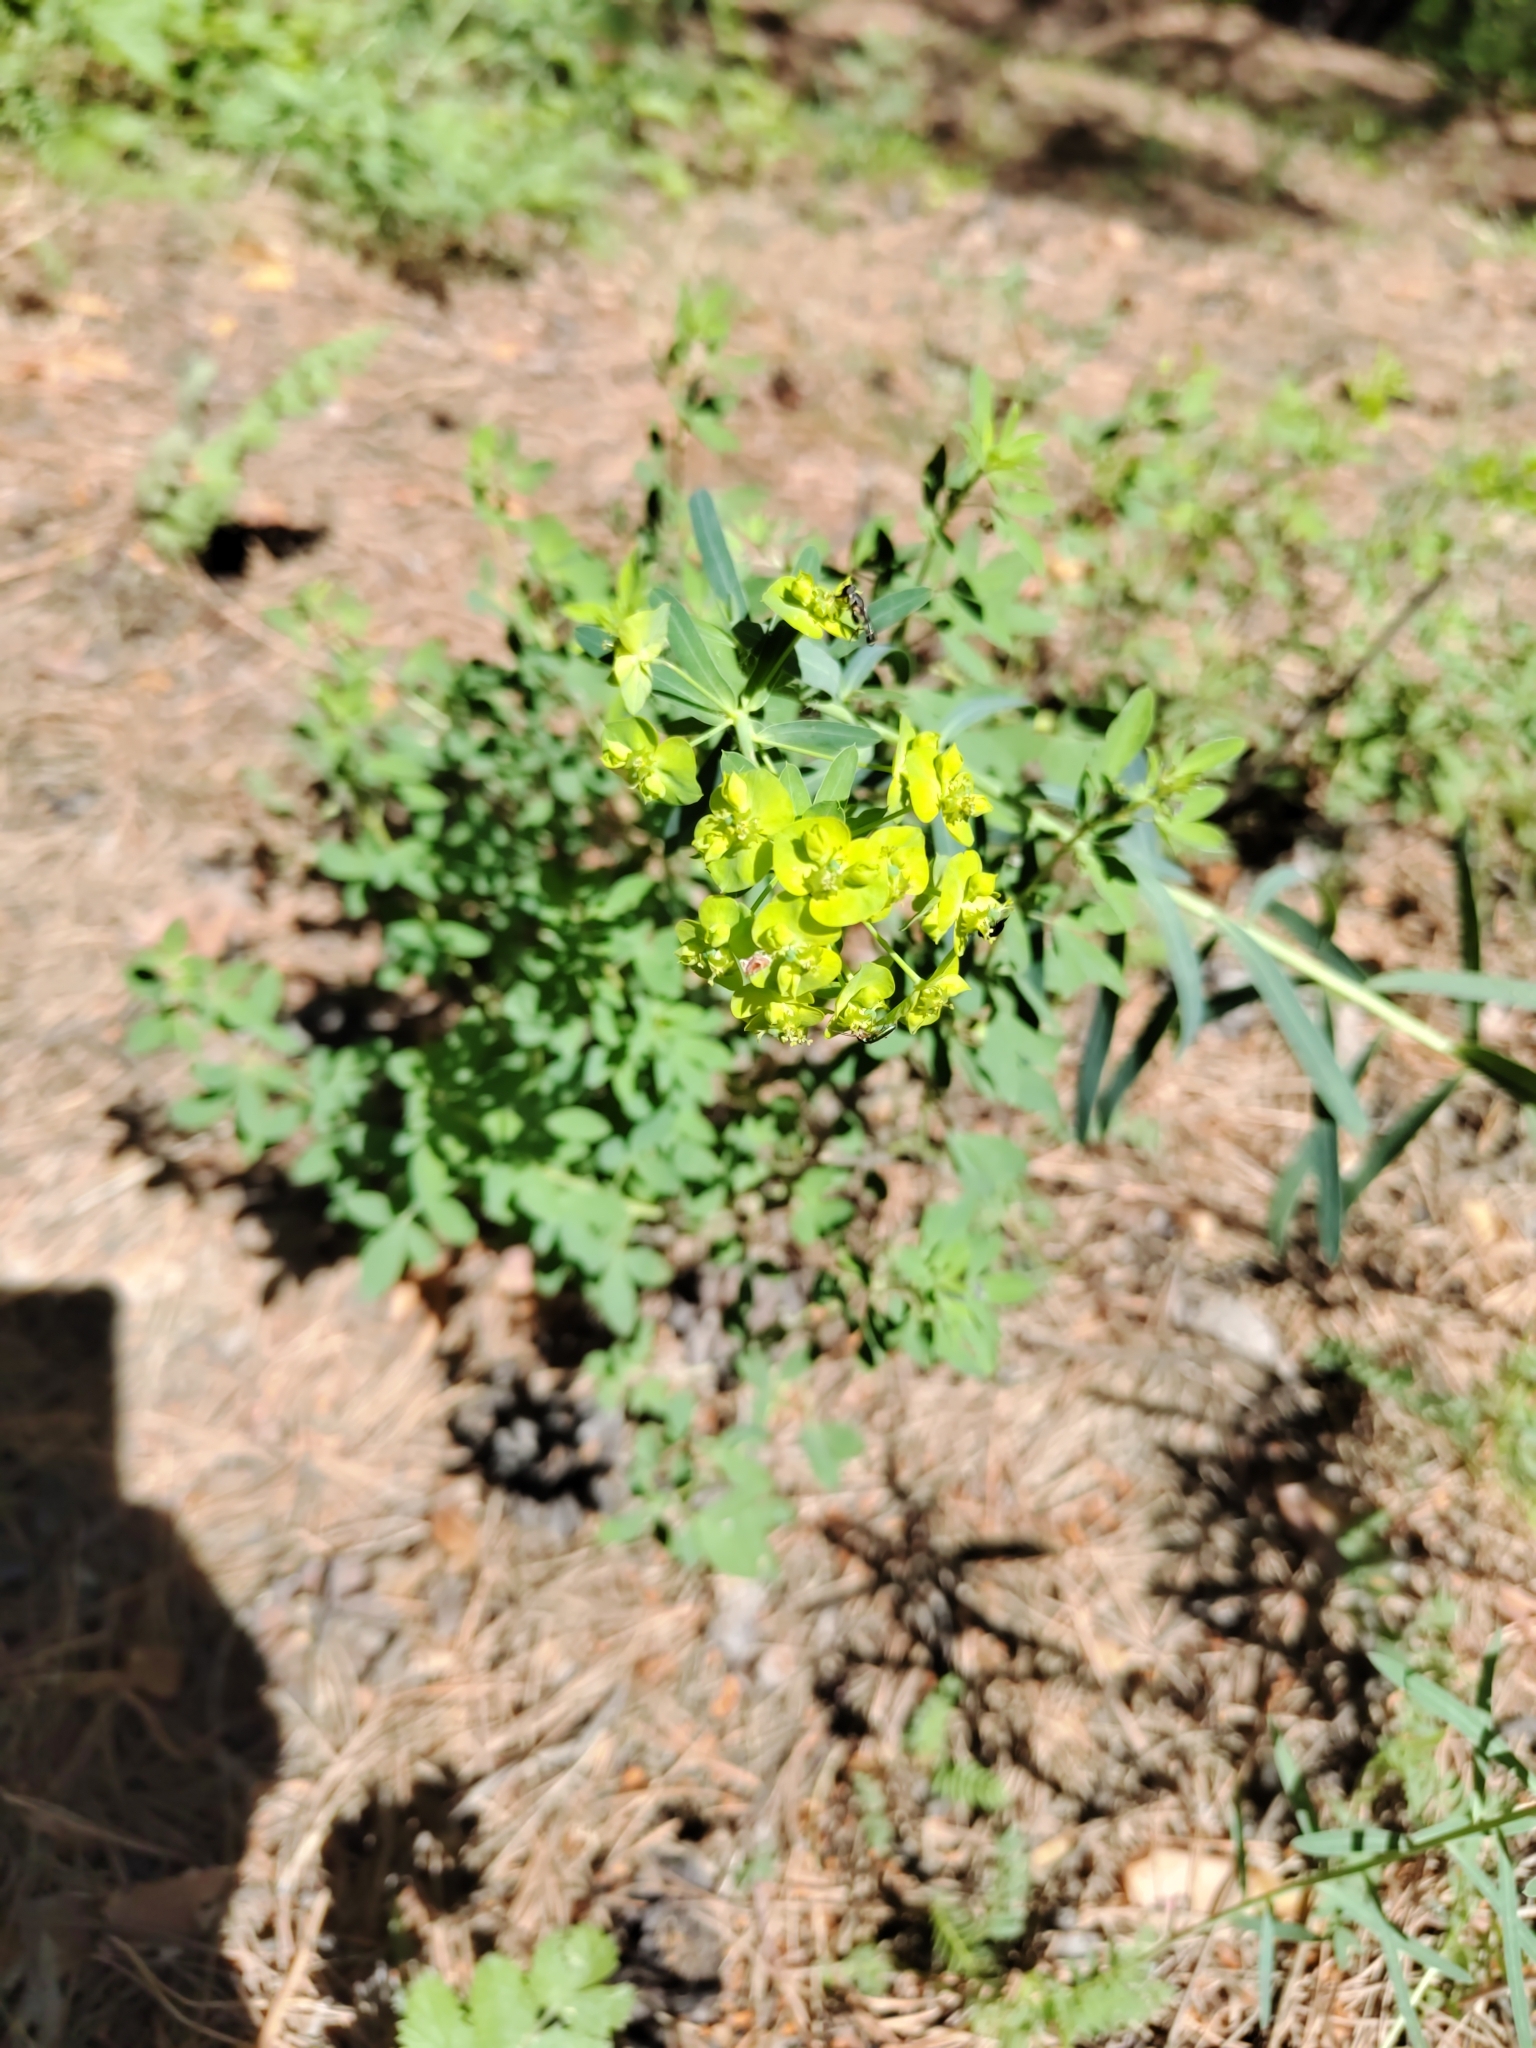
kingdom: Plantae
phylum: Tracheophyta
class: Magnoliopsida
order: Malpighiales
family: Euphorbiaceae
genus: Euphorbia
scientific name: Euphorbia virgata
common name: Leafy spurge
